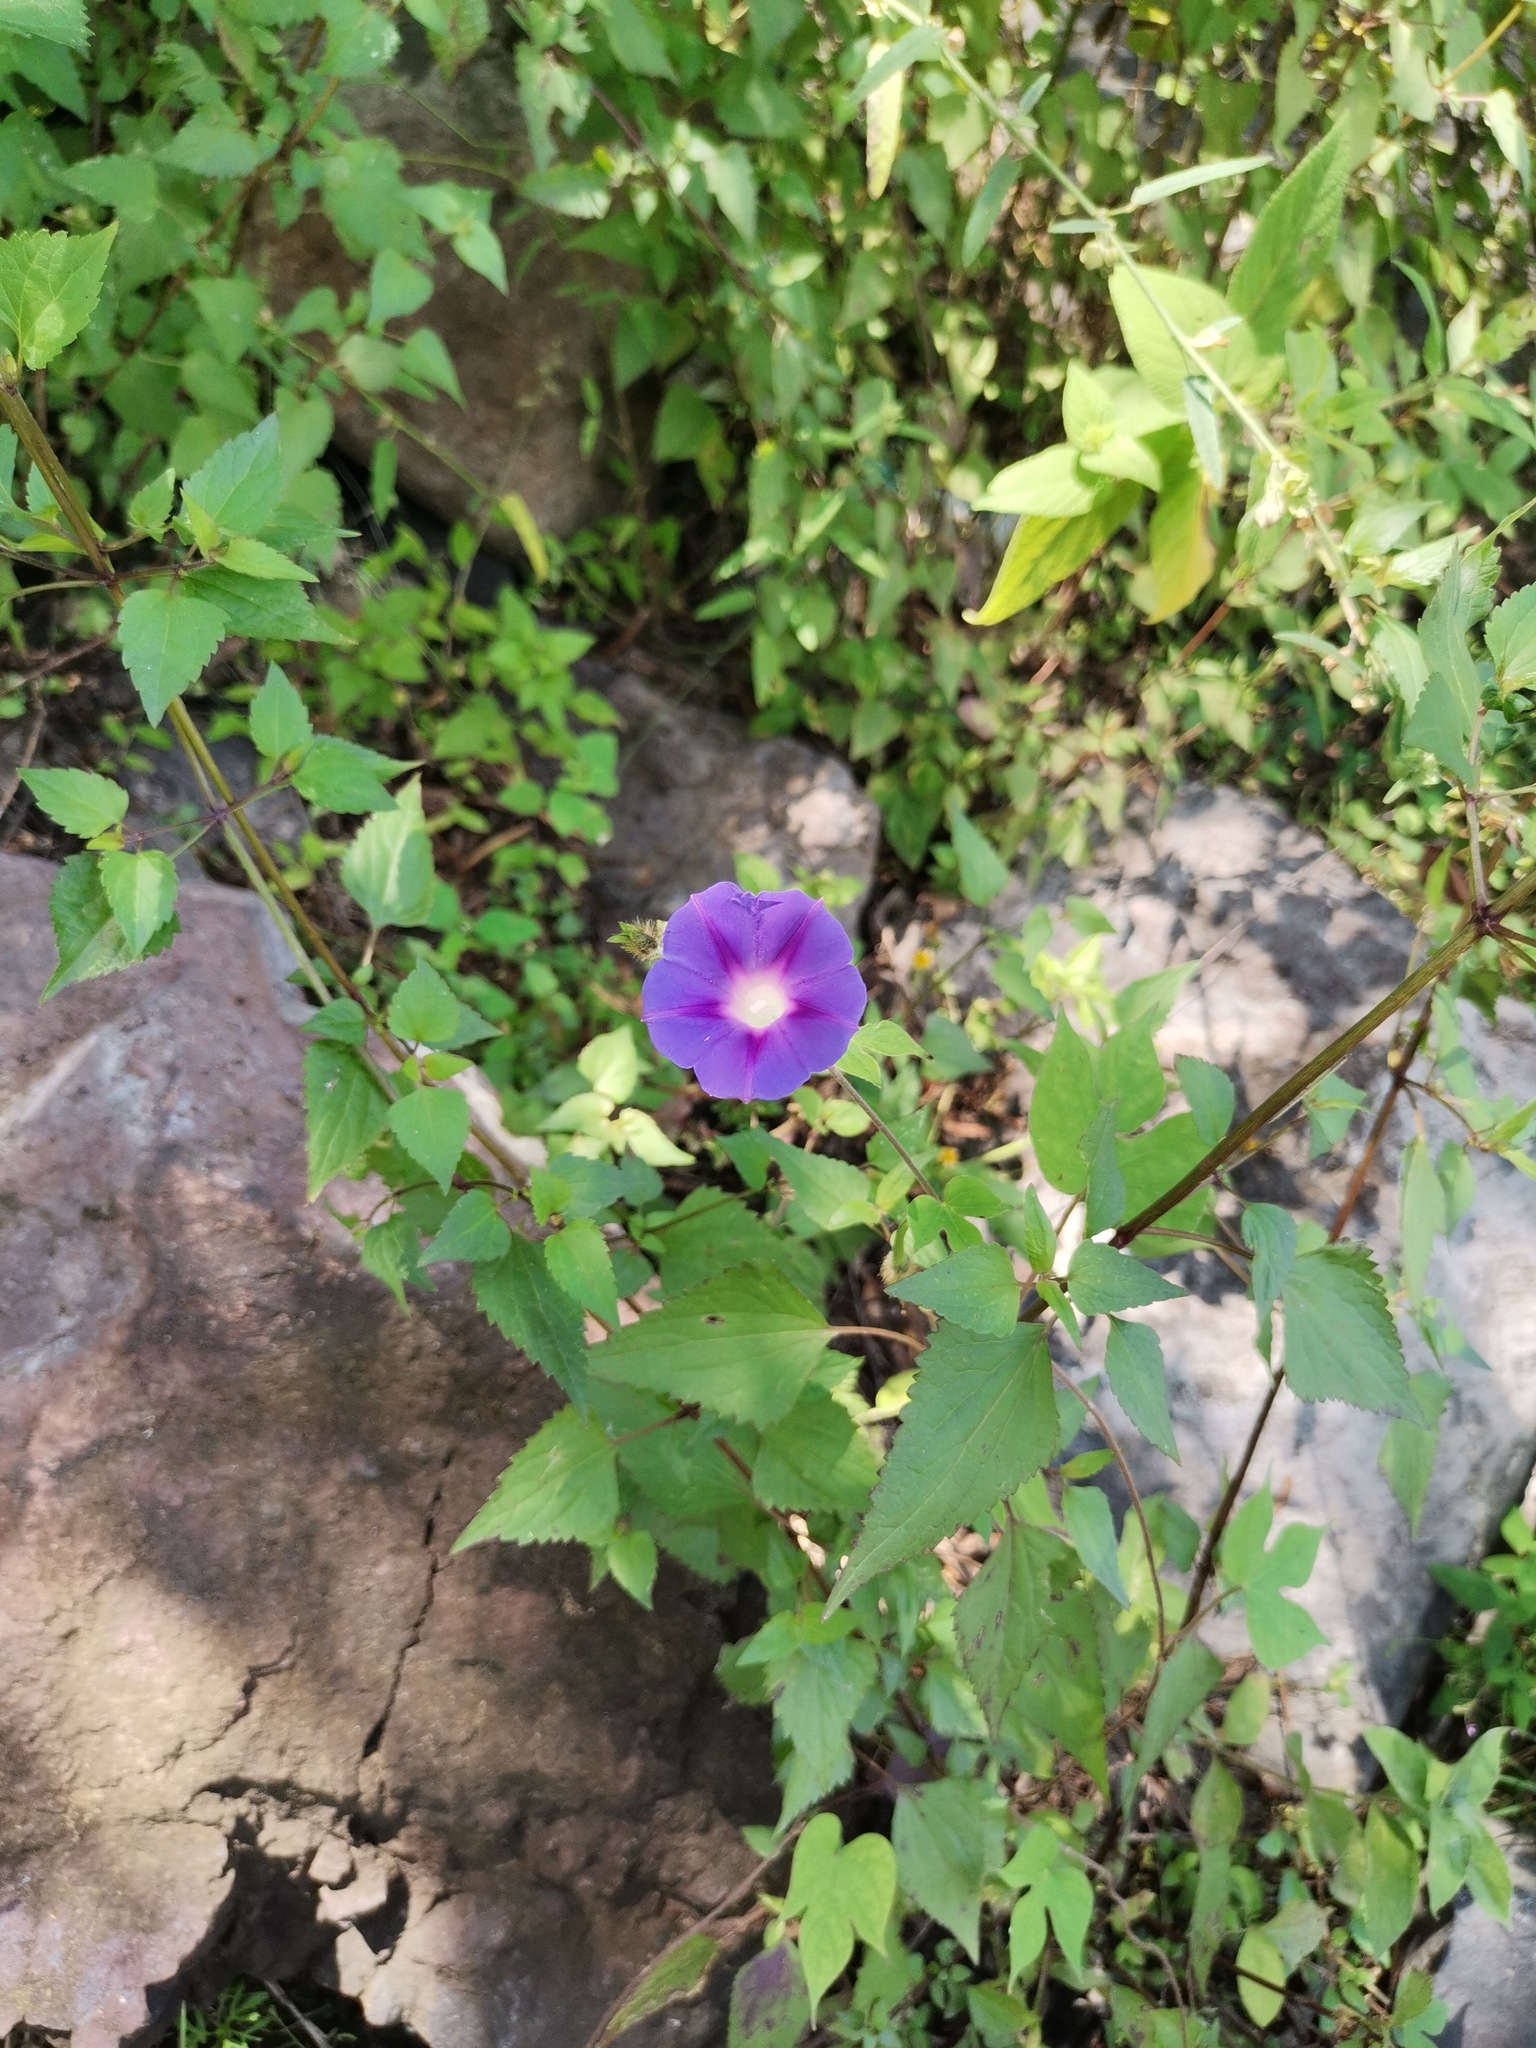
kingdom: Plantae
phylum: Tracheophyta
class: Magnoliopsida
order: Solanales
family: Convolvulaceae
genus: Ipomoea
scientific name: Ipomoea purpurea
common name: Common morning-glory
